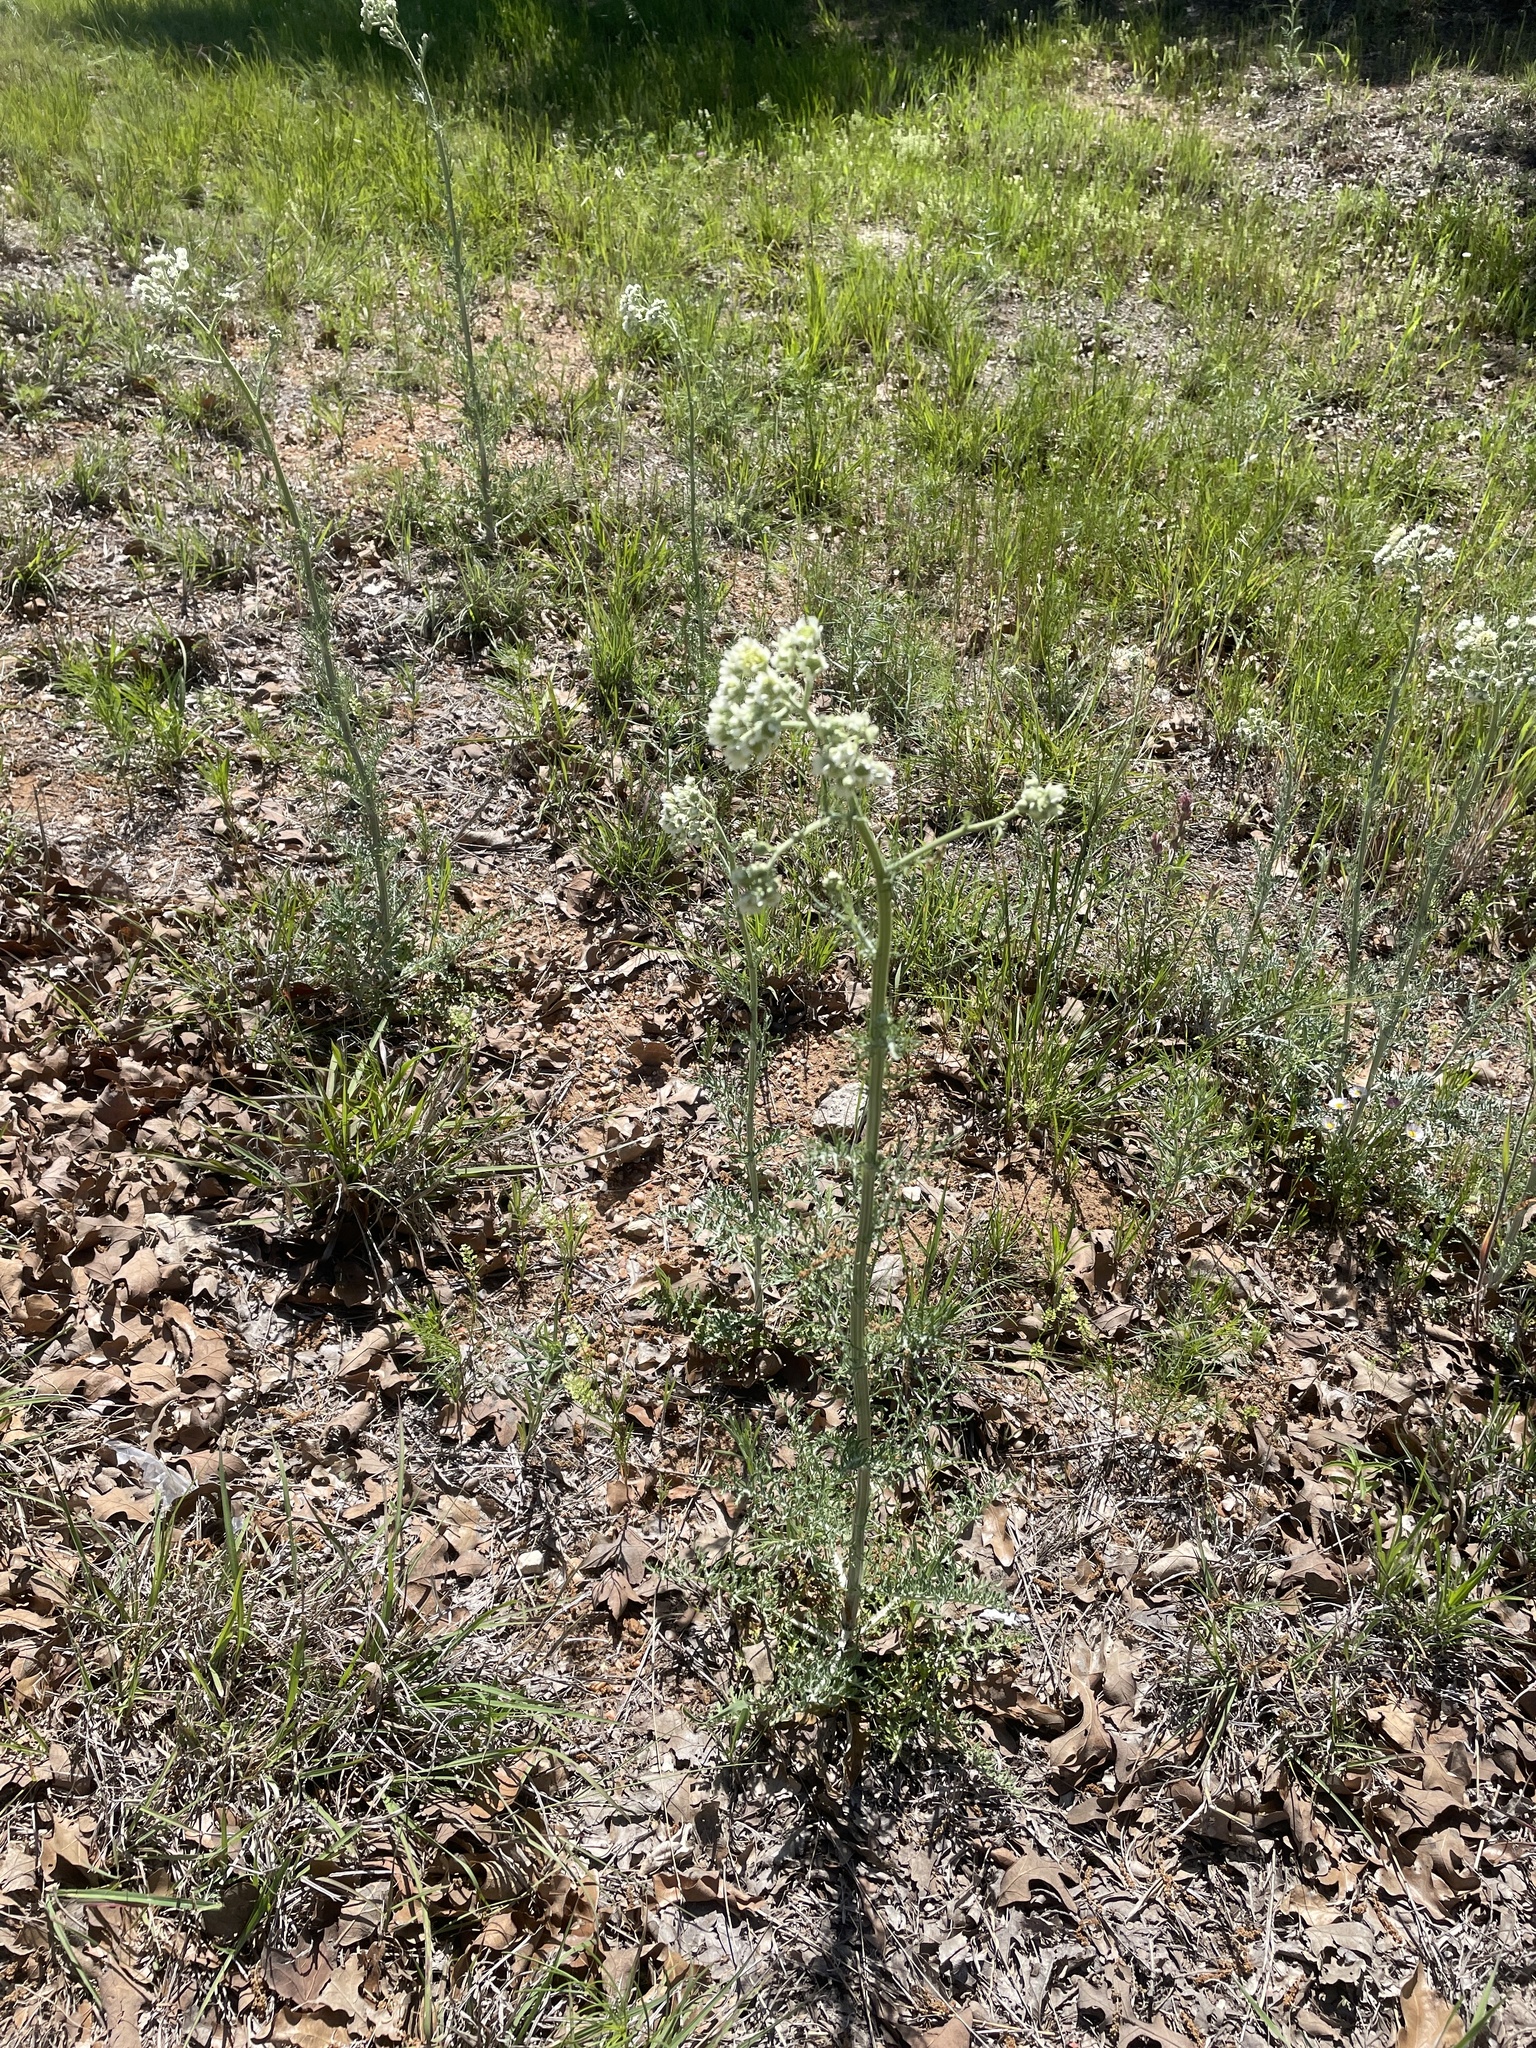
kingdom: Plantae
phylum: Tracheophyta
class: Magnoliopsida
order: Asterales
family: Asteraceae
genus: Hymenopappus
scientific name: Hymenopappus scabiosaeus
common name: Carolina woollywhite
